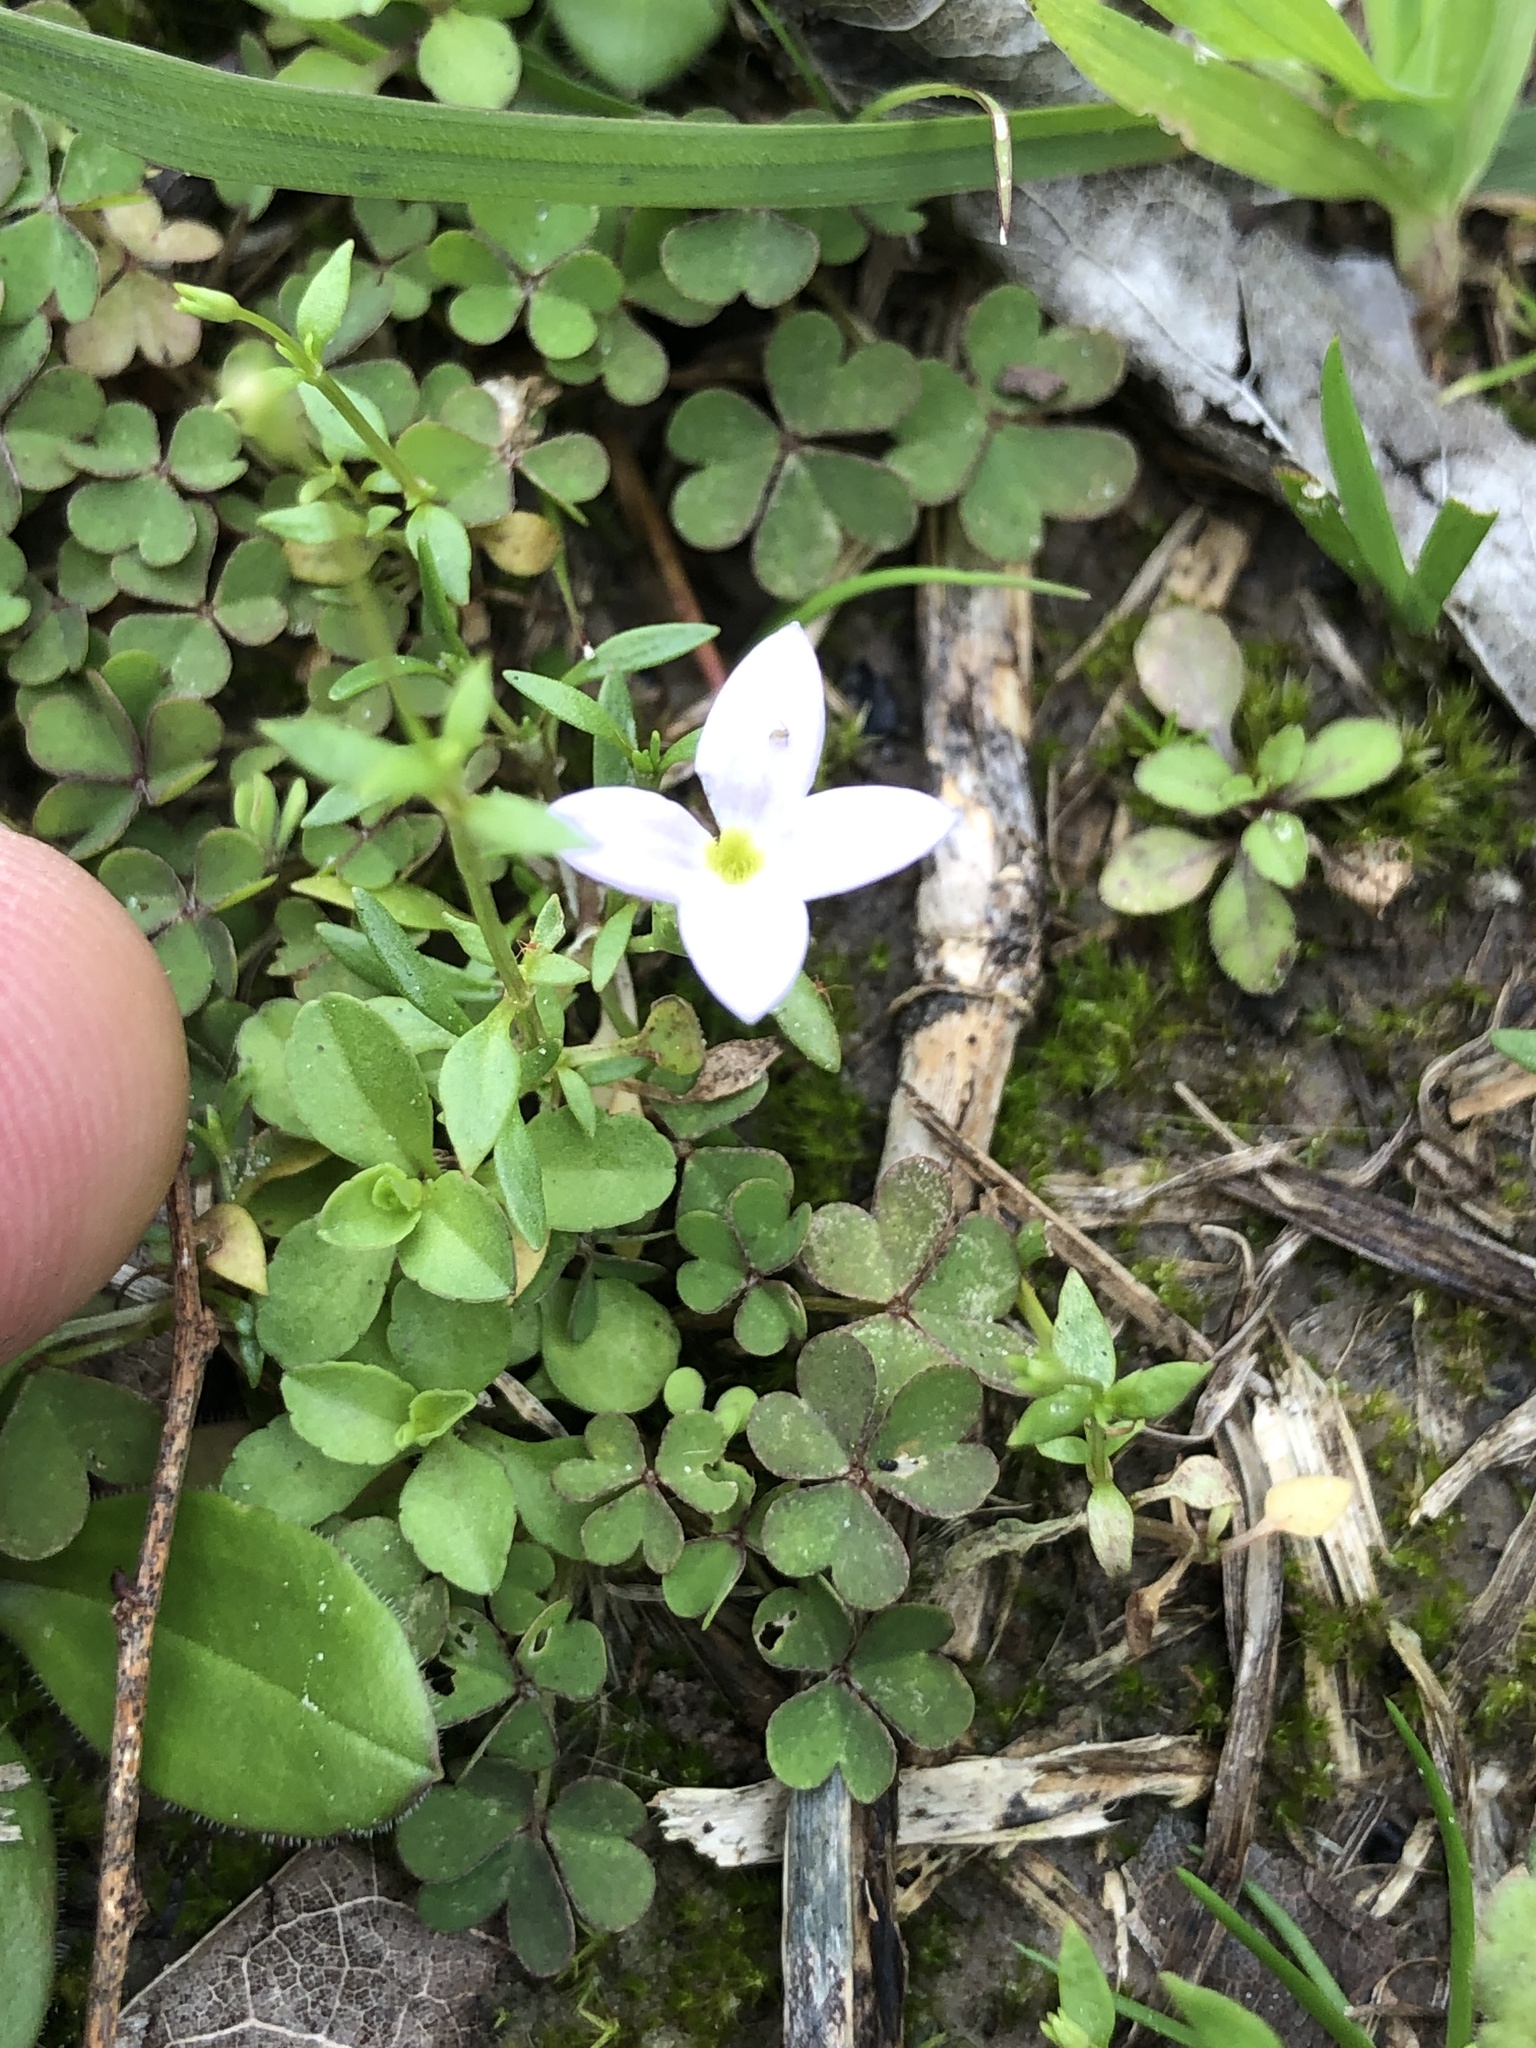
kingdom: Plantae
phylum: Tracheophyta
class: Magnoliopsida
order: Gentianales
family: Rubiaceae
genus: Houstonia
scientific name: Houstonia rosea
